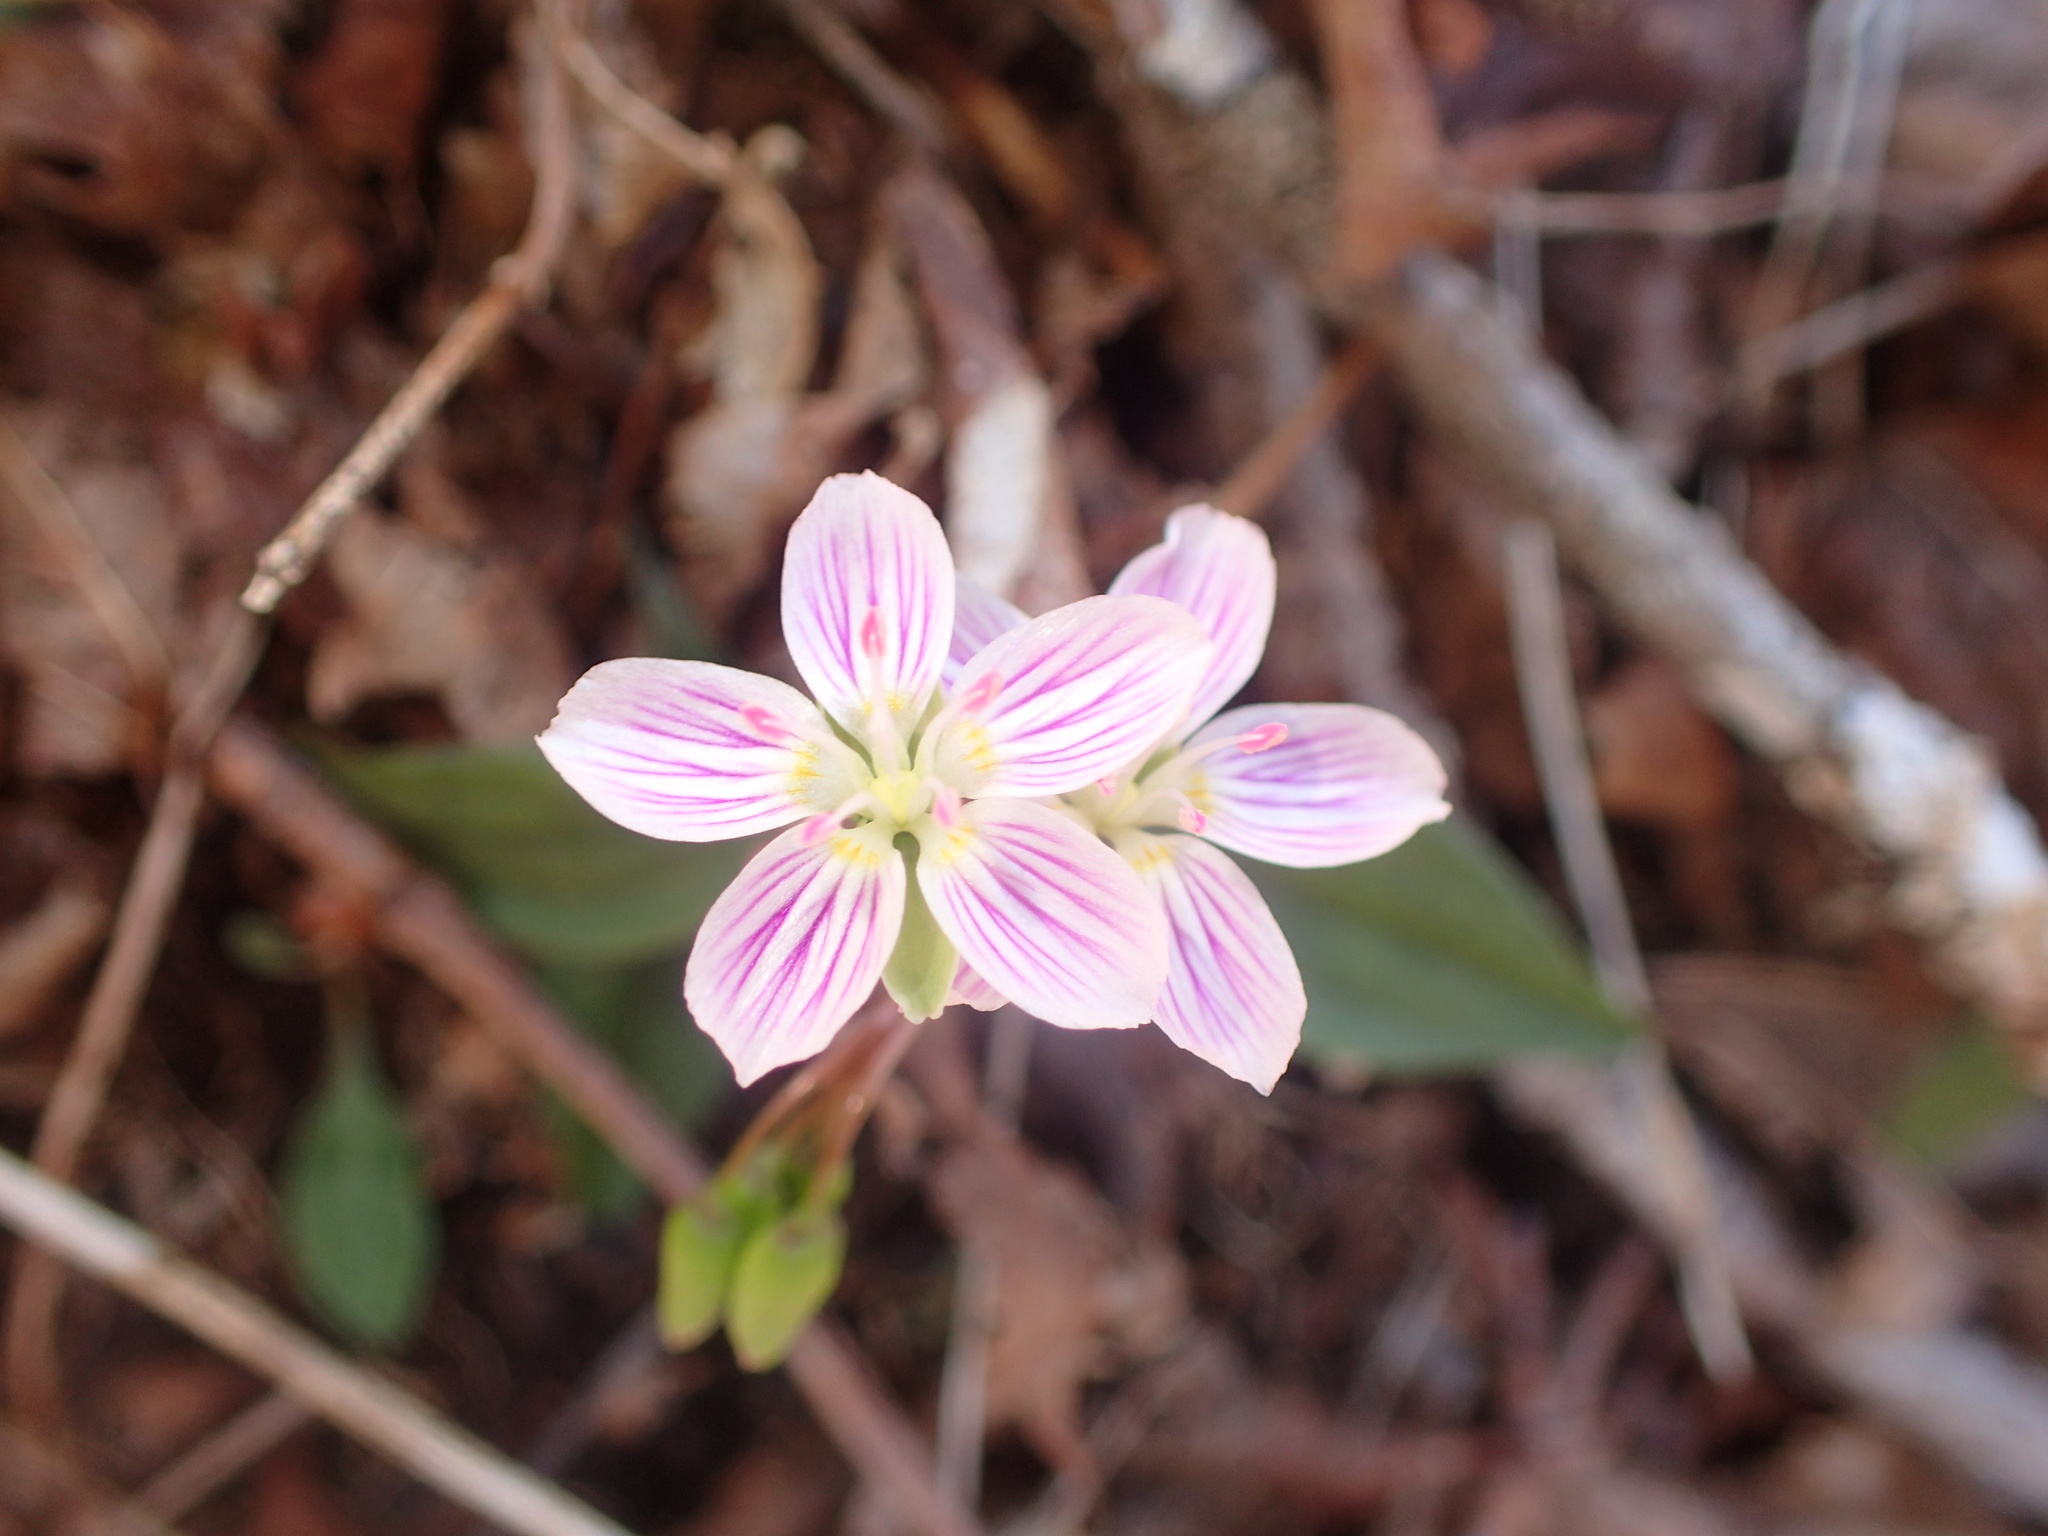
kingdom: Plantae
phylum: Tracheophyta
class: Magnoliopsida
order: Caryophyllales
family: Montiaceae
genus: Claytonia
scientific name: Claytonia caroliniana
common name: Carolina spring beauty
